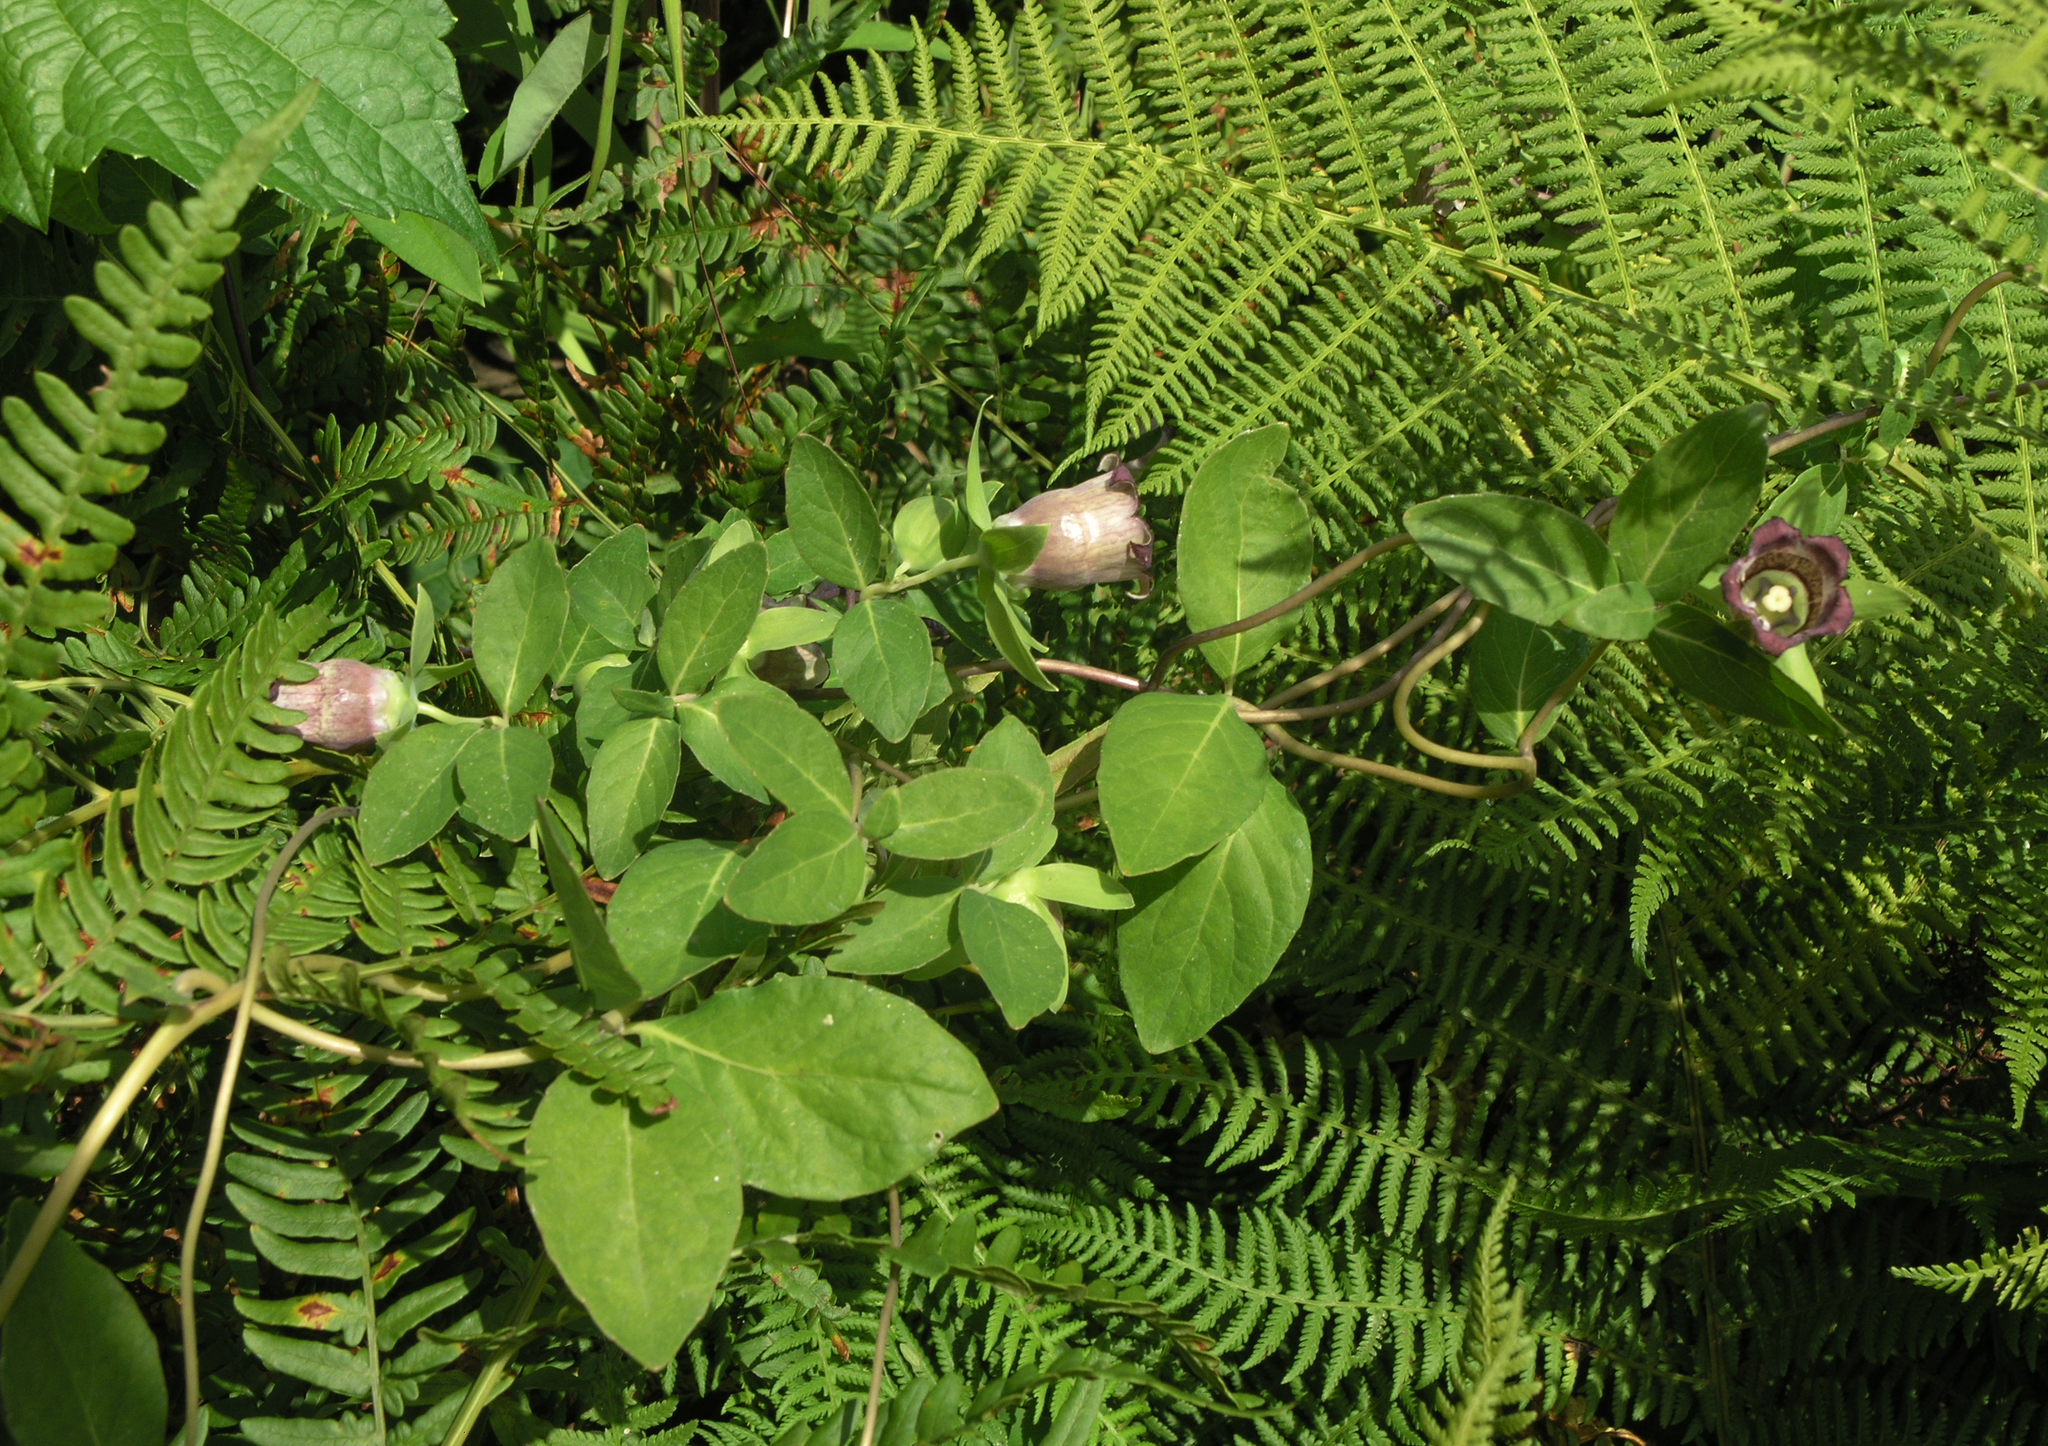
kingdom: Plantae
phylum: Tracheophyta
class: Magnoliopsida
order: Asterales
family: Campanulaceae
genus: Codonopsis
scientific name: Codonopsis ussuriensis
